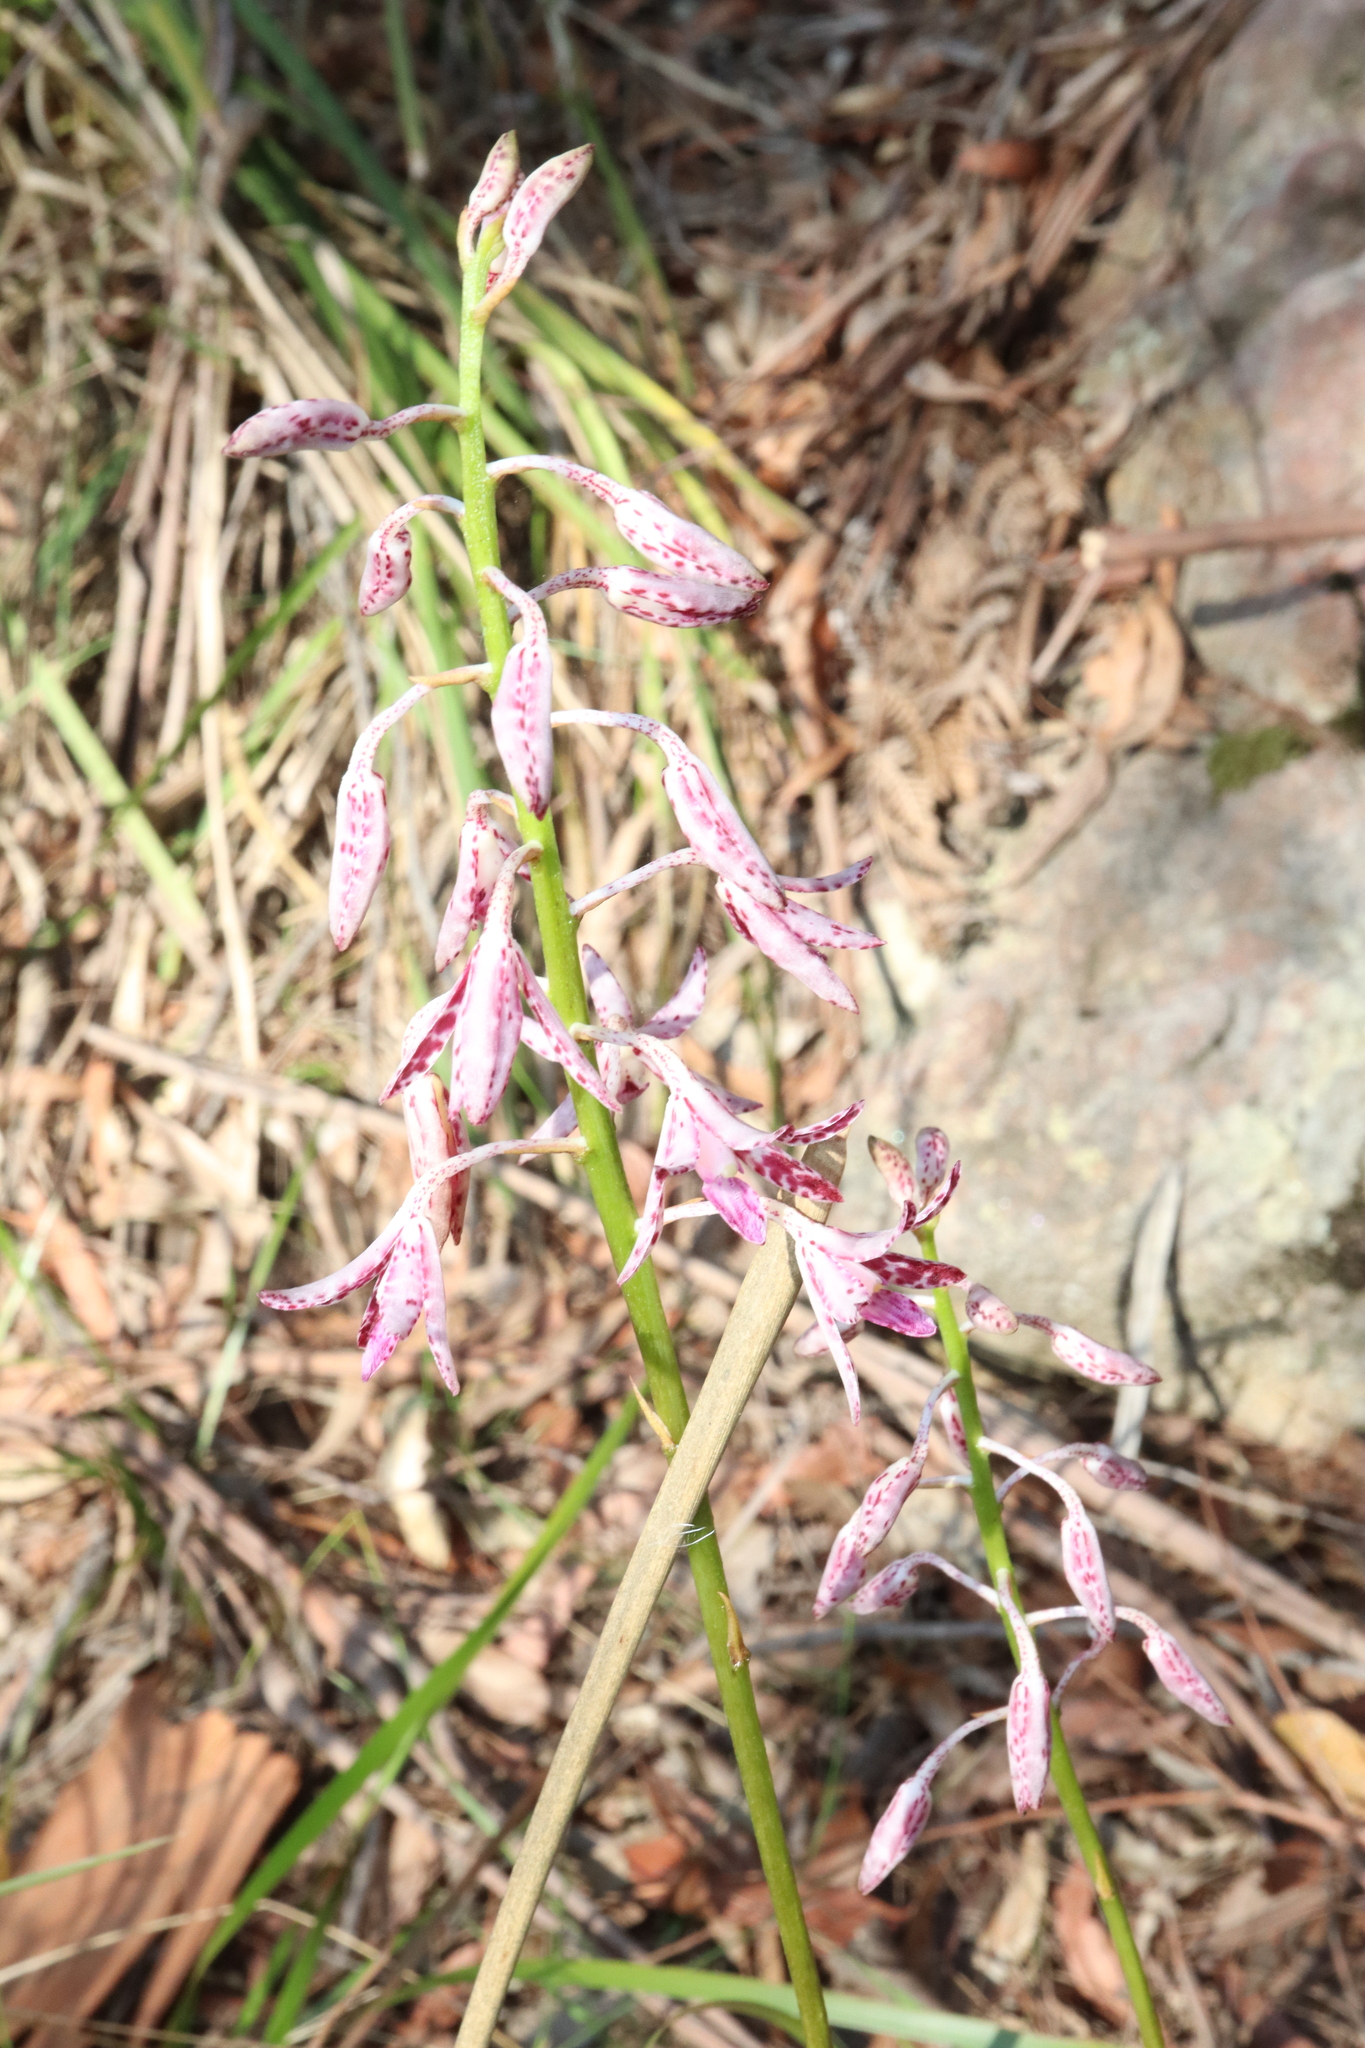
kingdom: Plantae
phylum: Tracheophyta
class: Liliopsida
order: Asparagales
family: Orchidaceae
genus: Dipodium
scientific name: Dipodium variegatum
